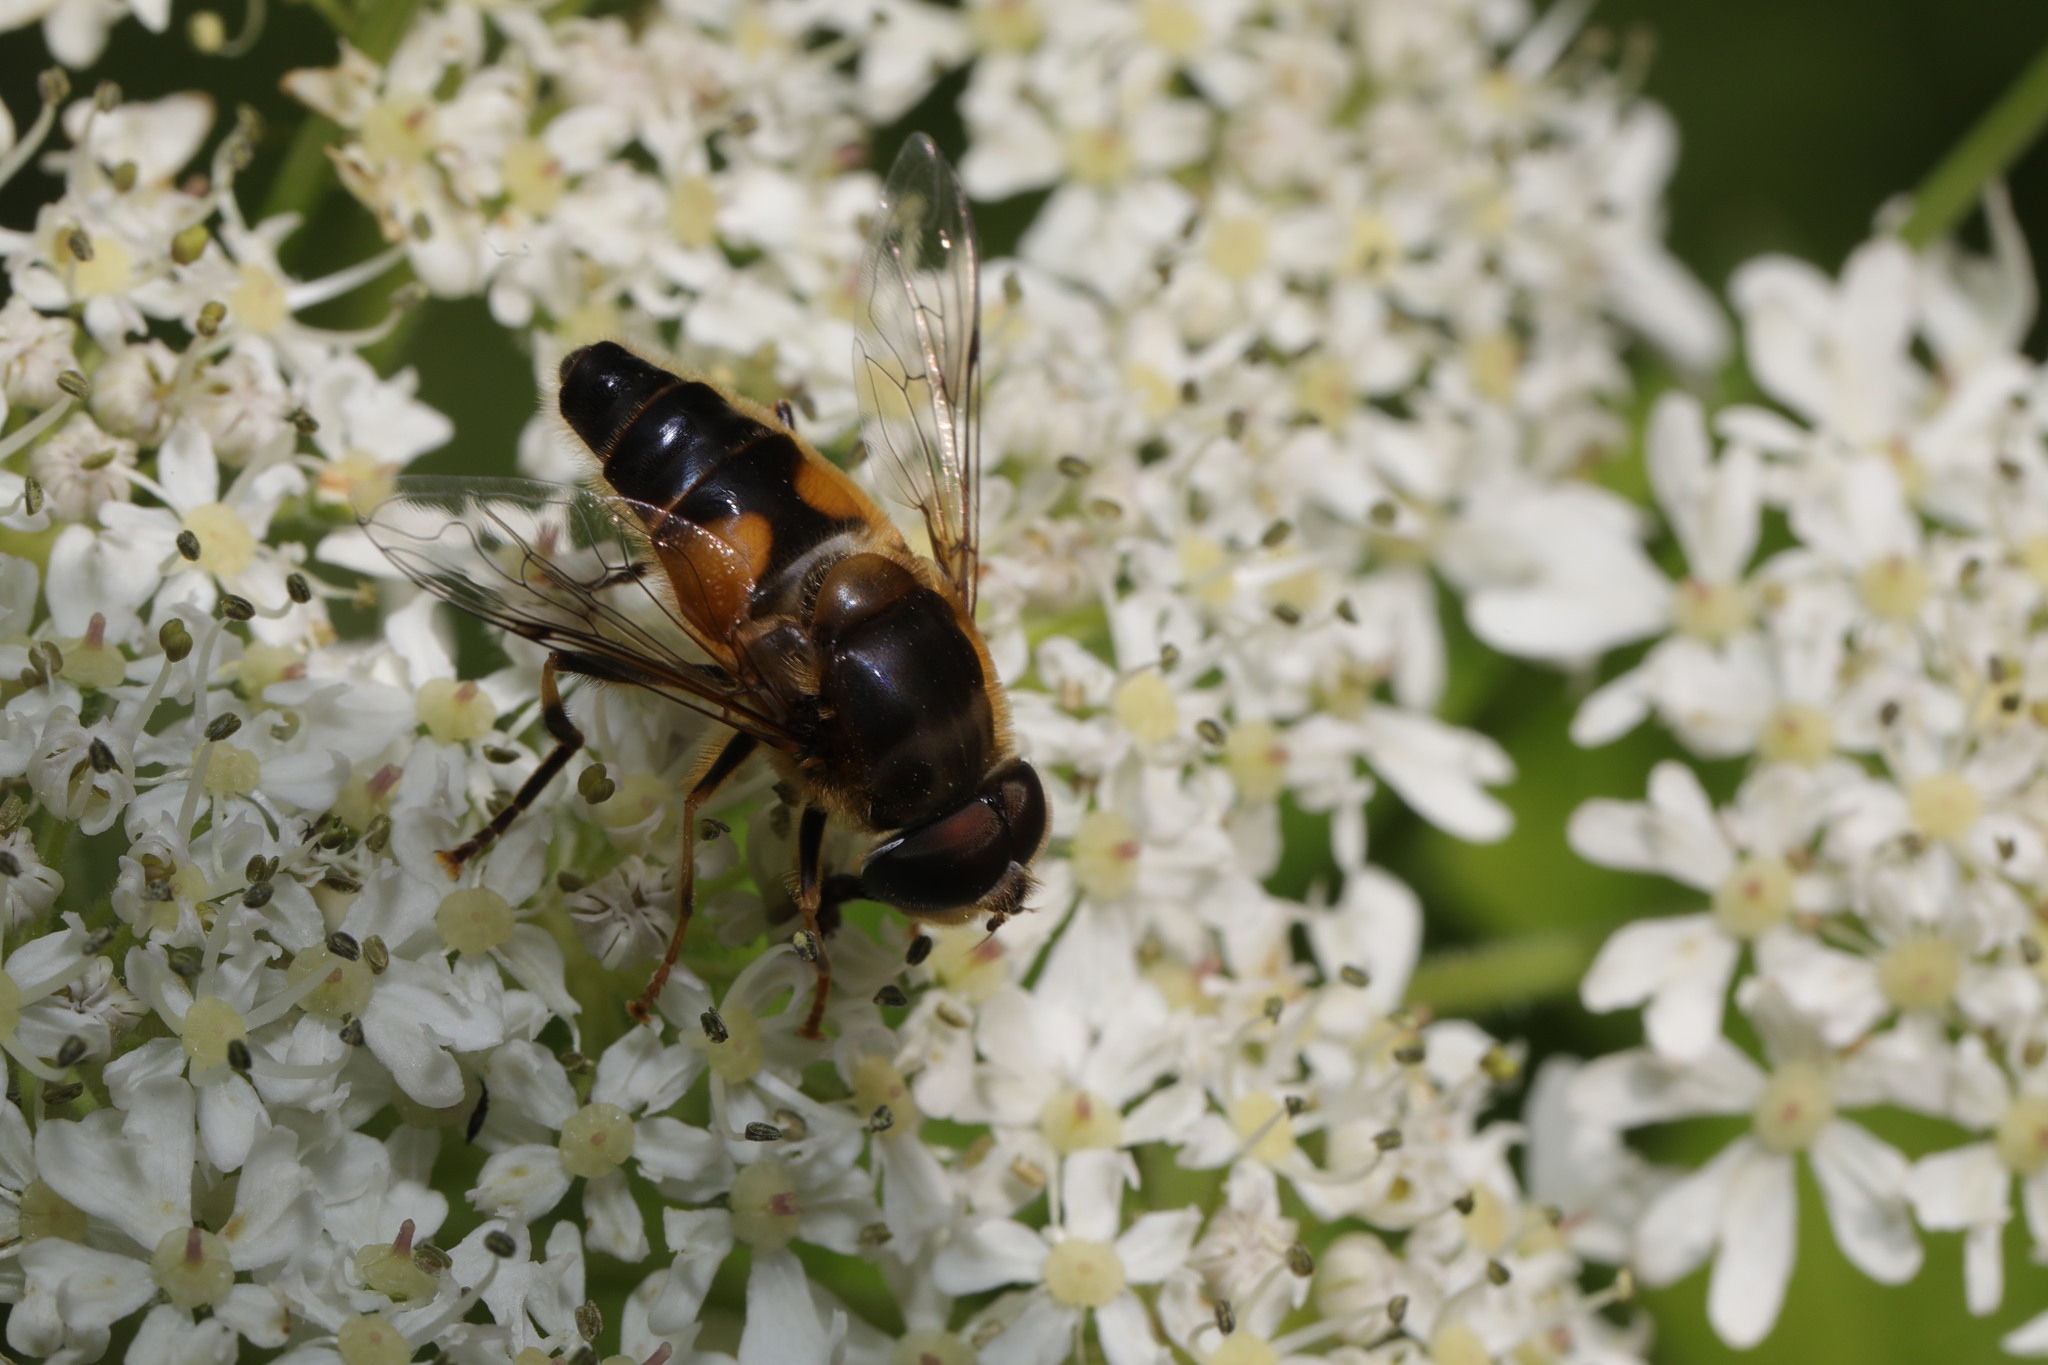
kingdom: Animalia
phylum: Arthropoda
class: Insecta
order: Diptera
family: Syrphidae
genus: Eristalis
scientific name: Eristalis pertinax
